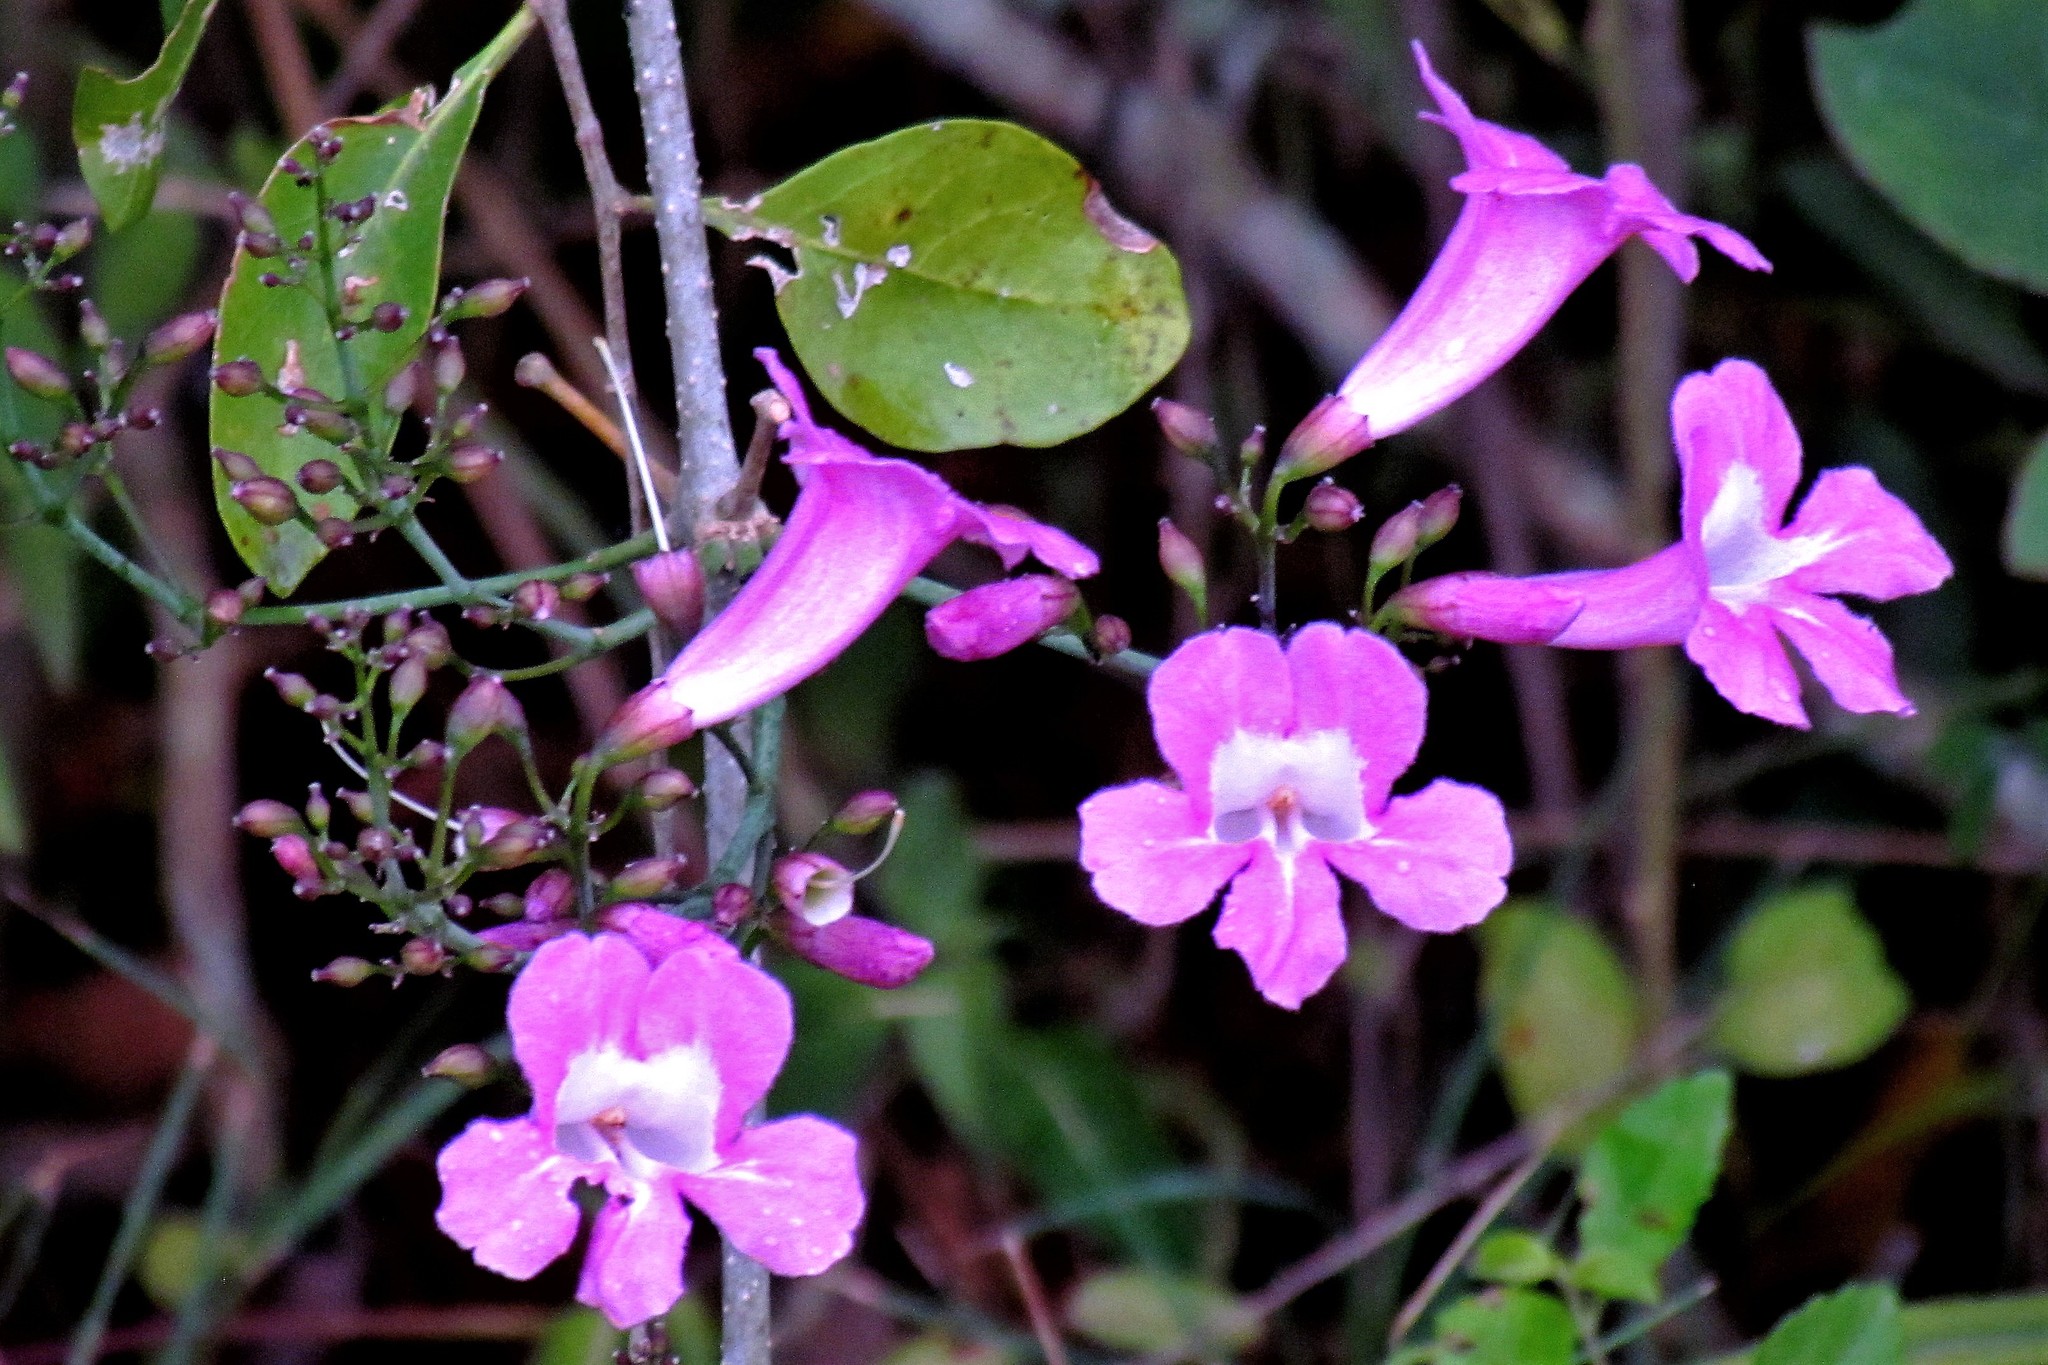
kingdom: Plantae
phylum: Tracheophyta
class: Magnoliopsida
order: Lamiales
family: Bignoniaceae
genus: Tanaecium
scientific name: Tanaecium dichotomum
